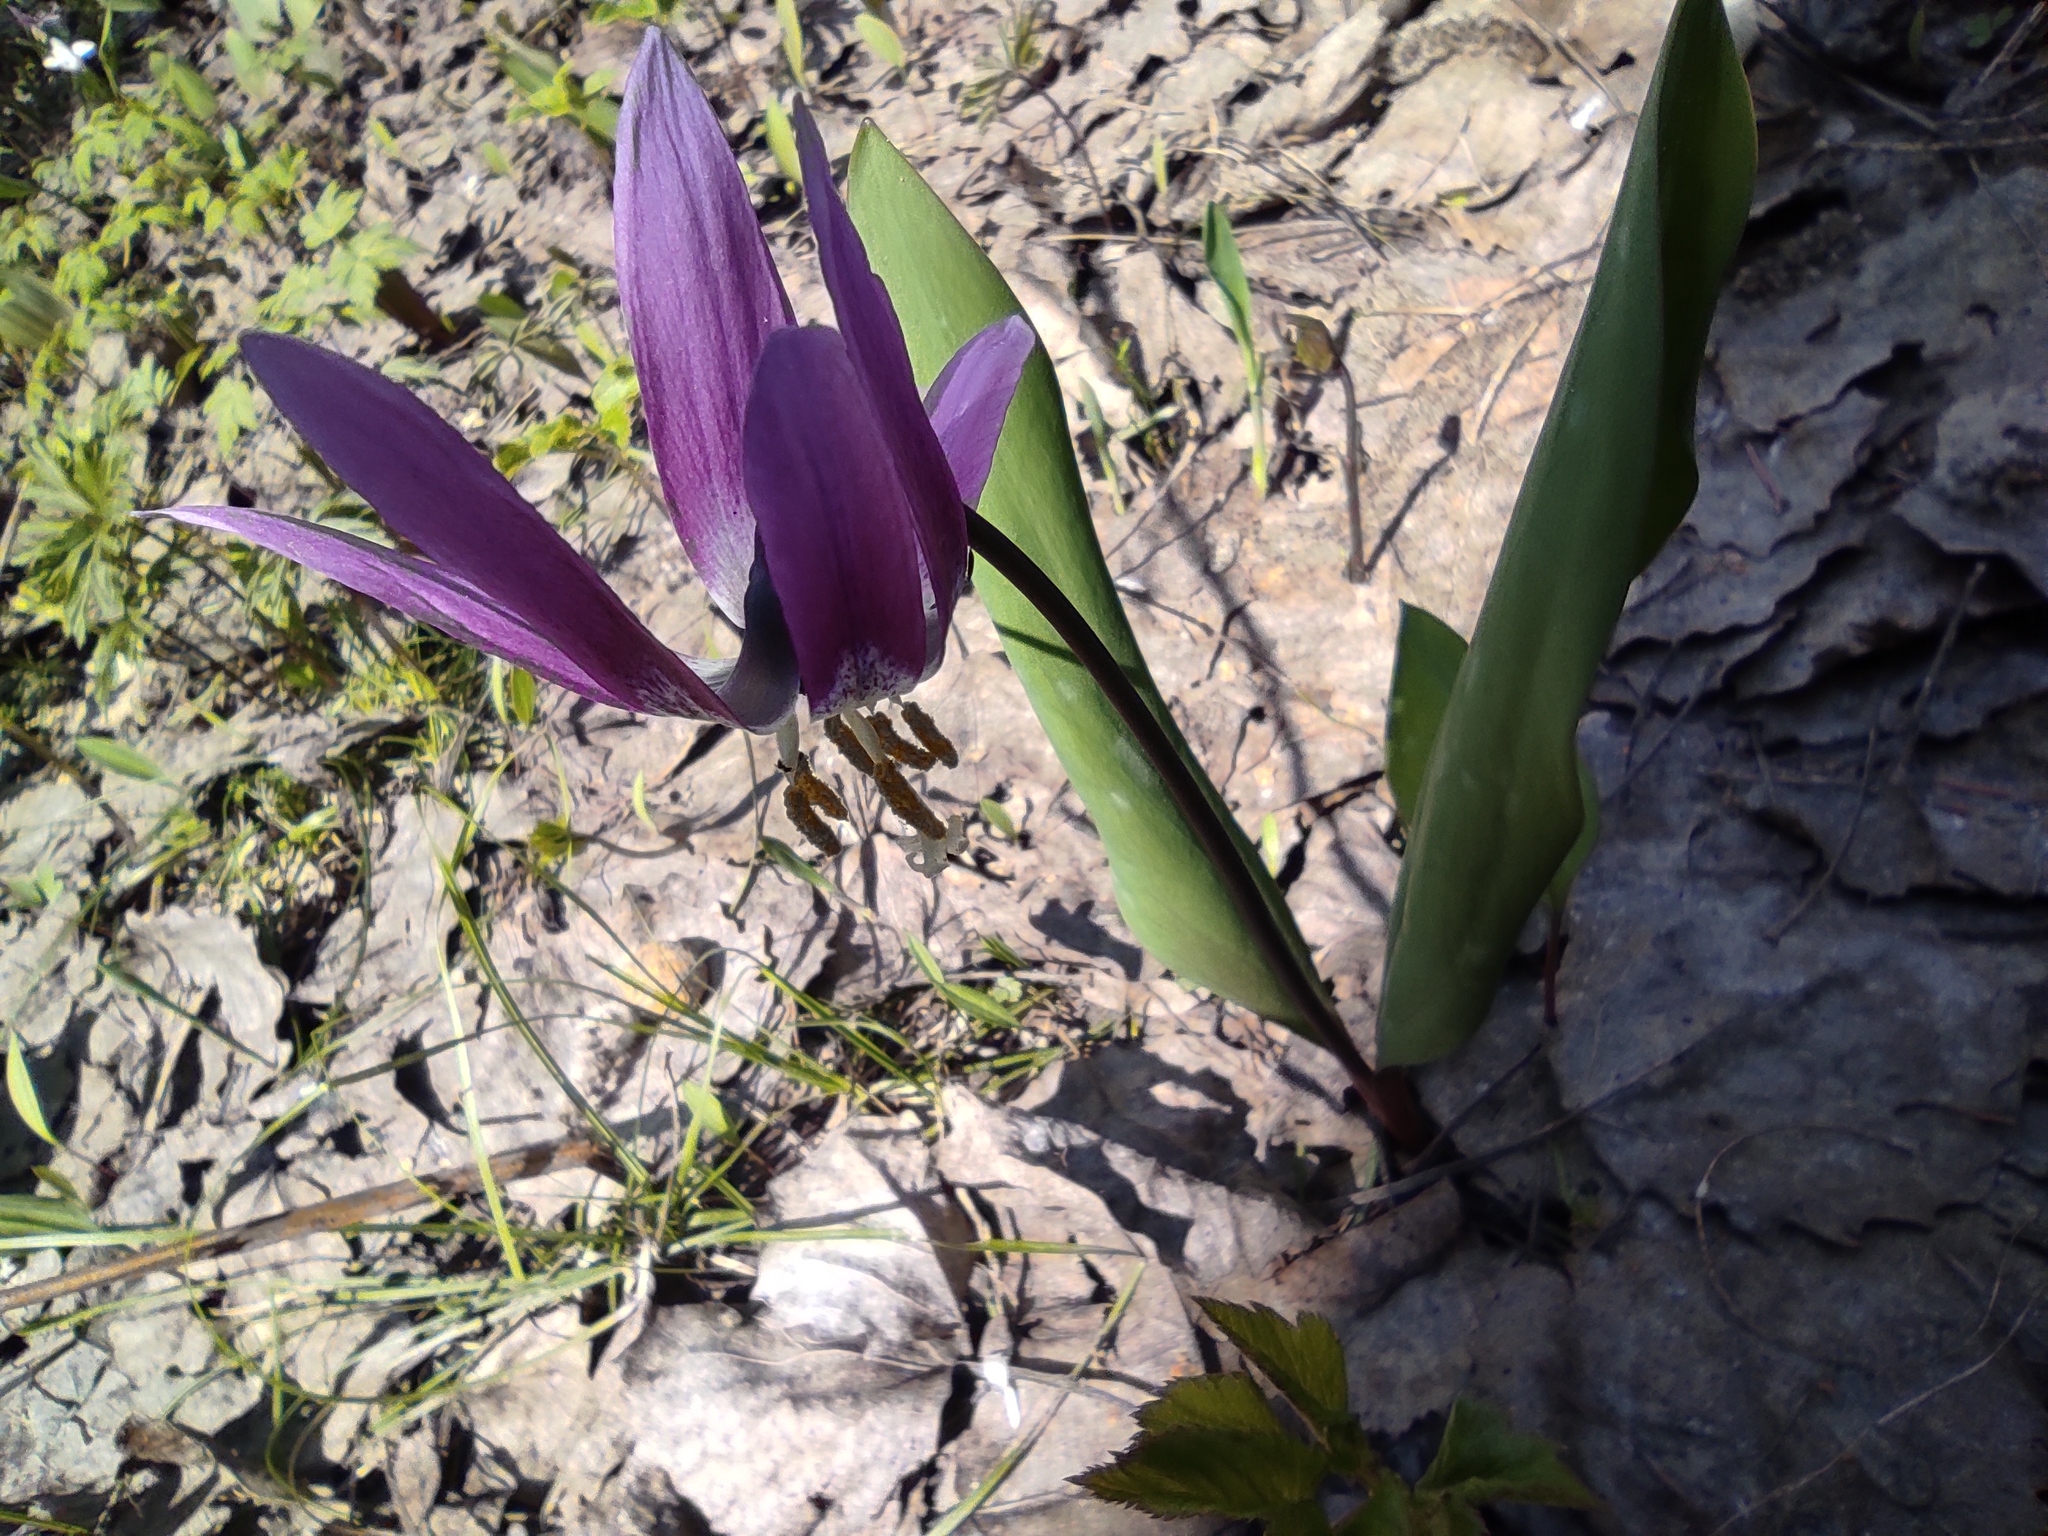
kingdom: Plantae
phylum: Tracheophyta
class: Liliopsida
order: Liliales
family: Liliaceae
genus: Erythronium
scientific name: Erythronium sibiricum
